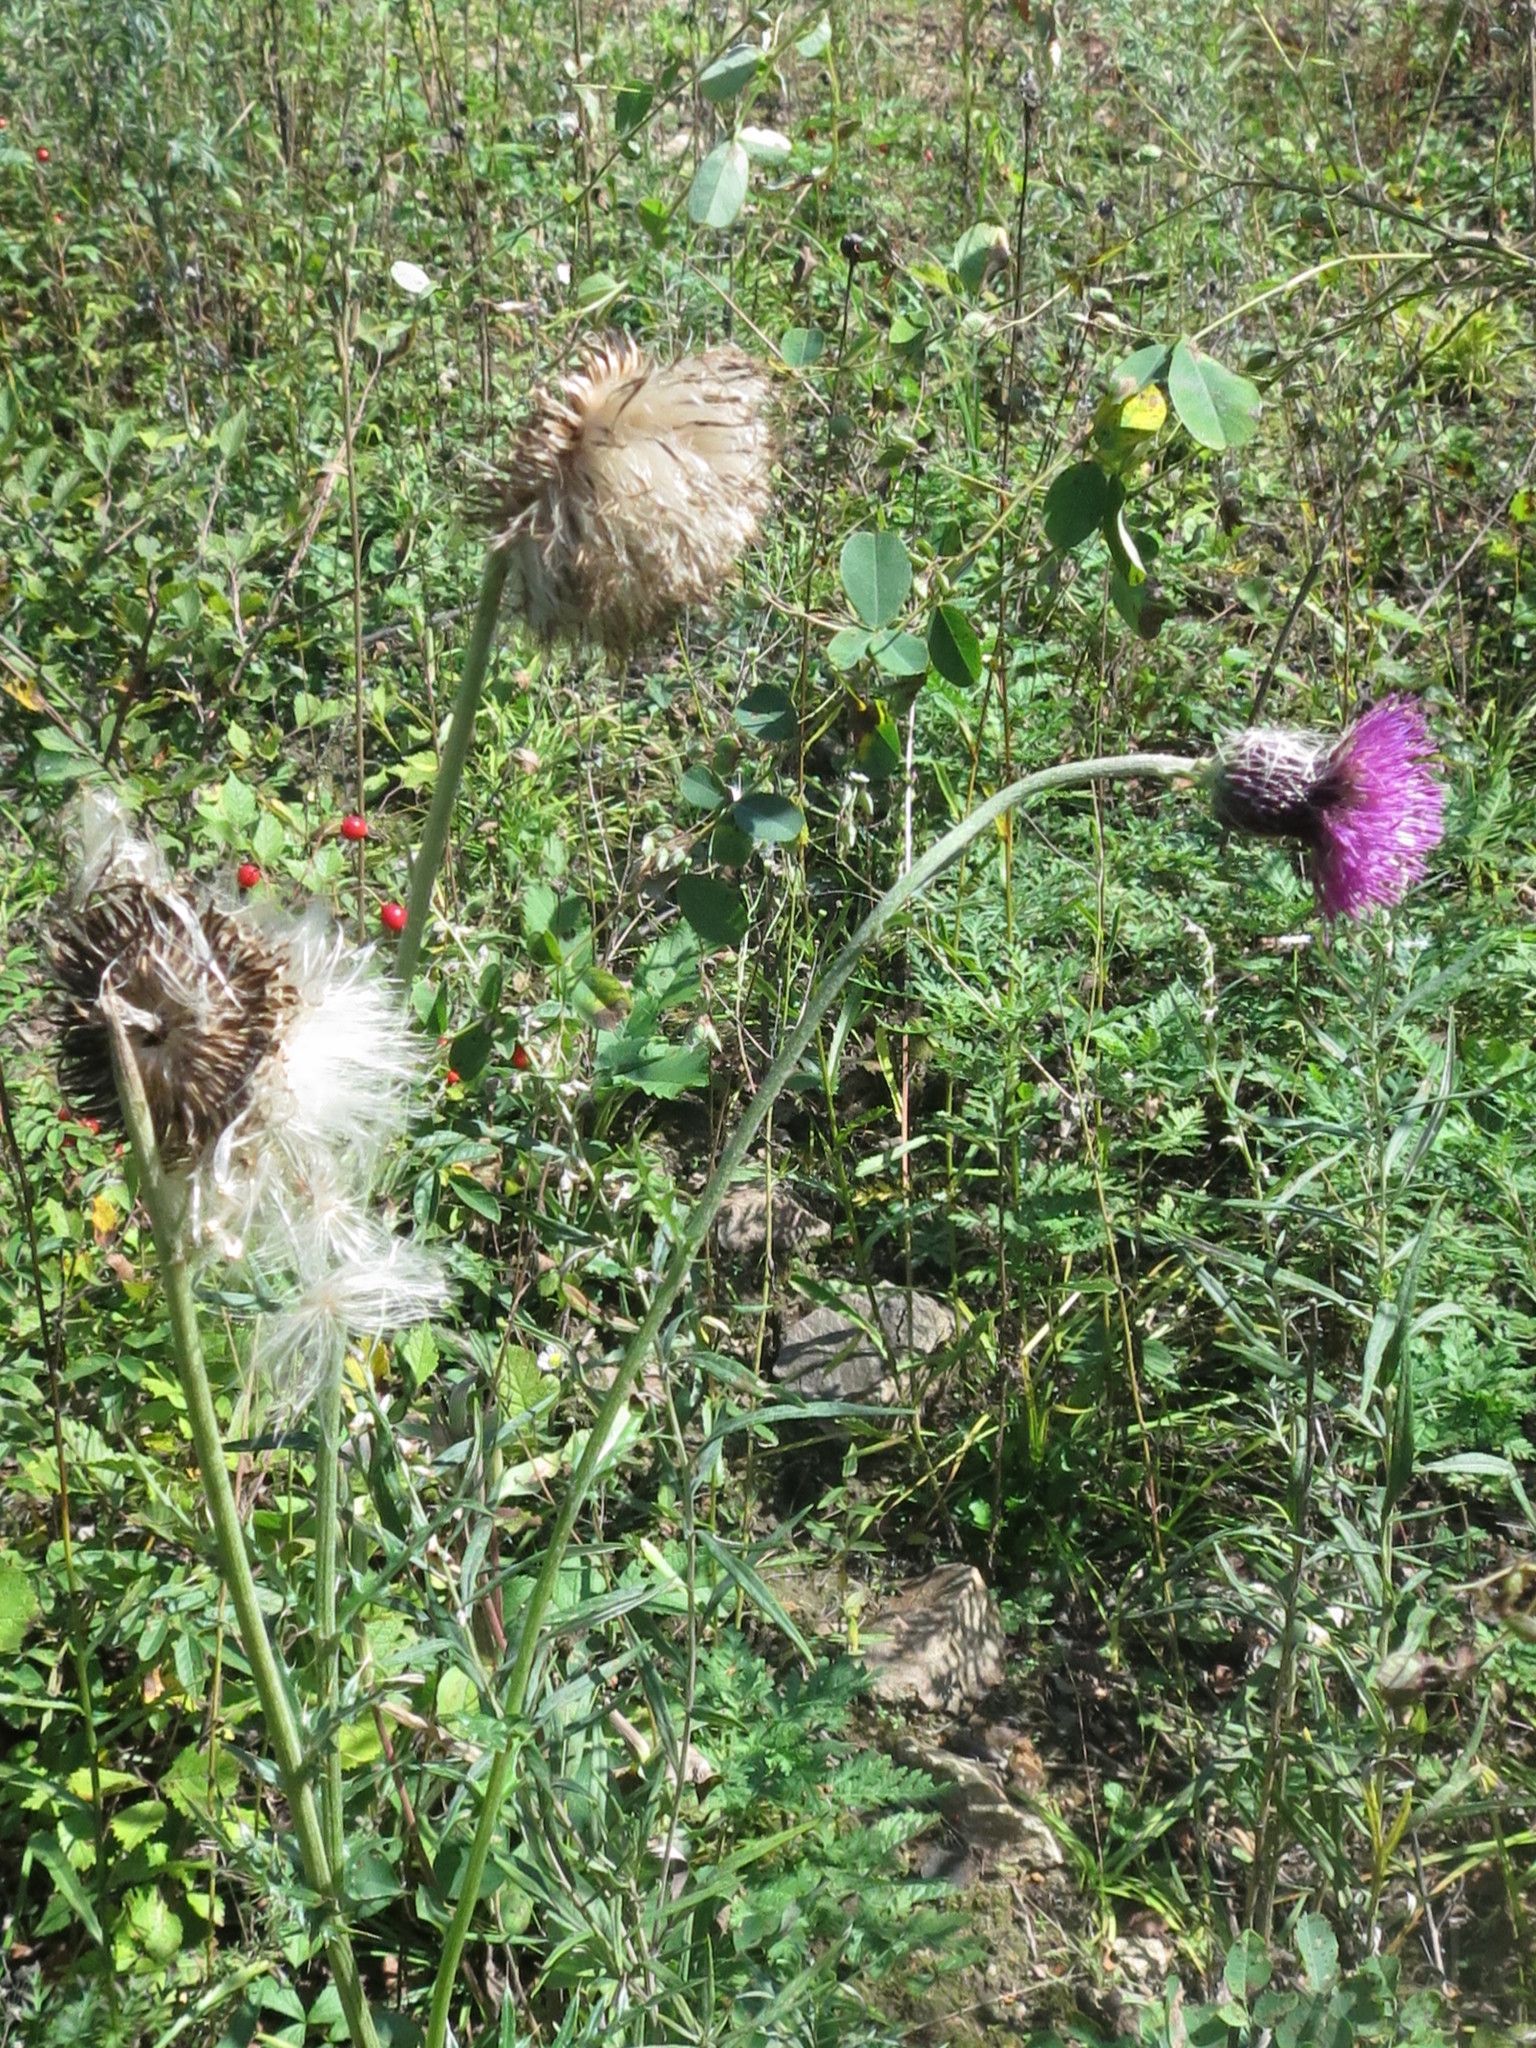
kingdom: Plantae
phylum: Tracheophyta
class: Magnoliopsida
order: Asterales
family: Asteraceae
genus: Cirsium
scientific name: Cirsium maackii
